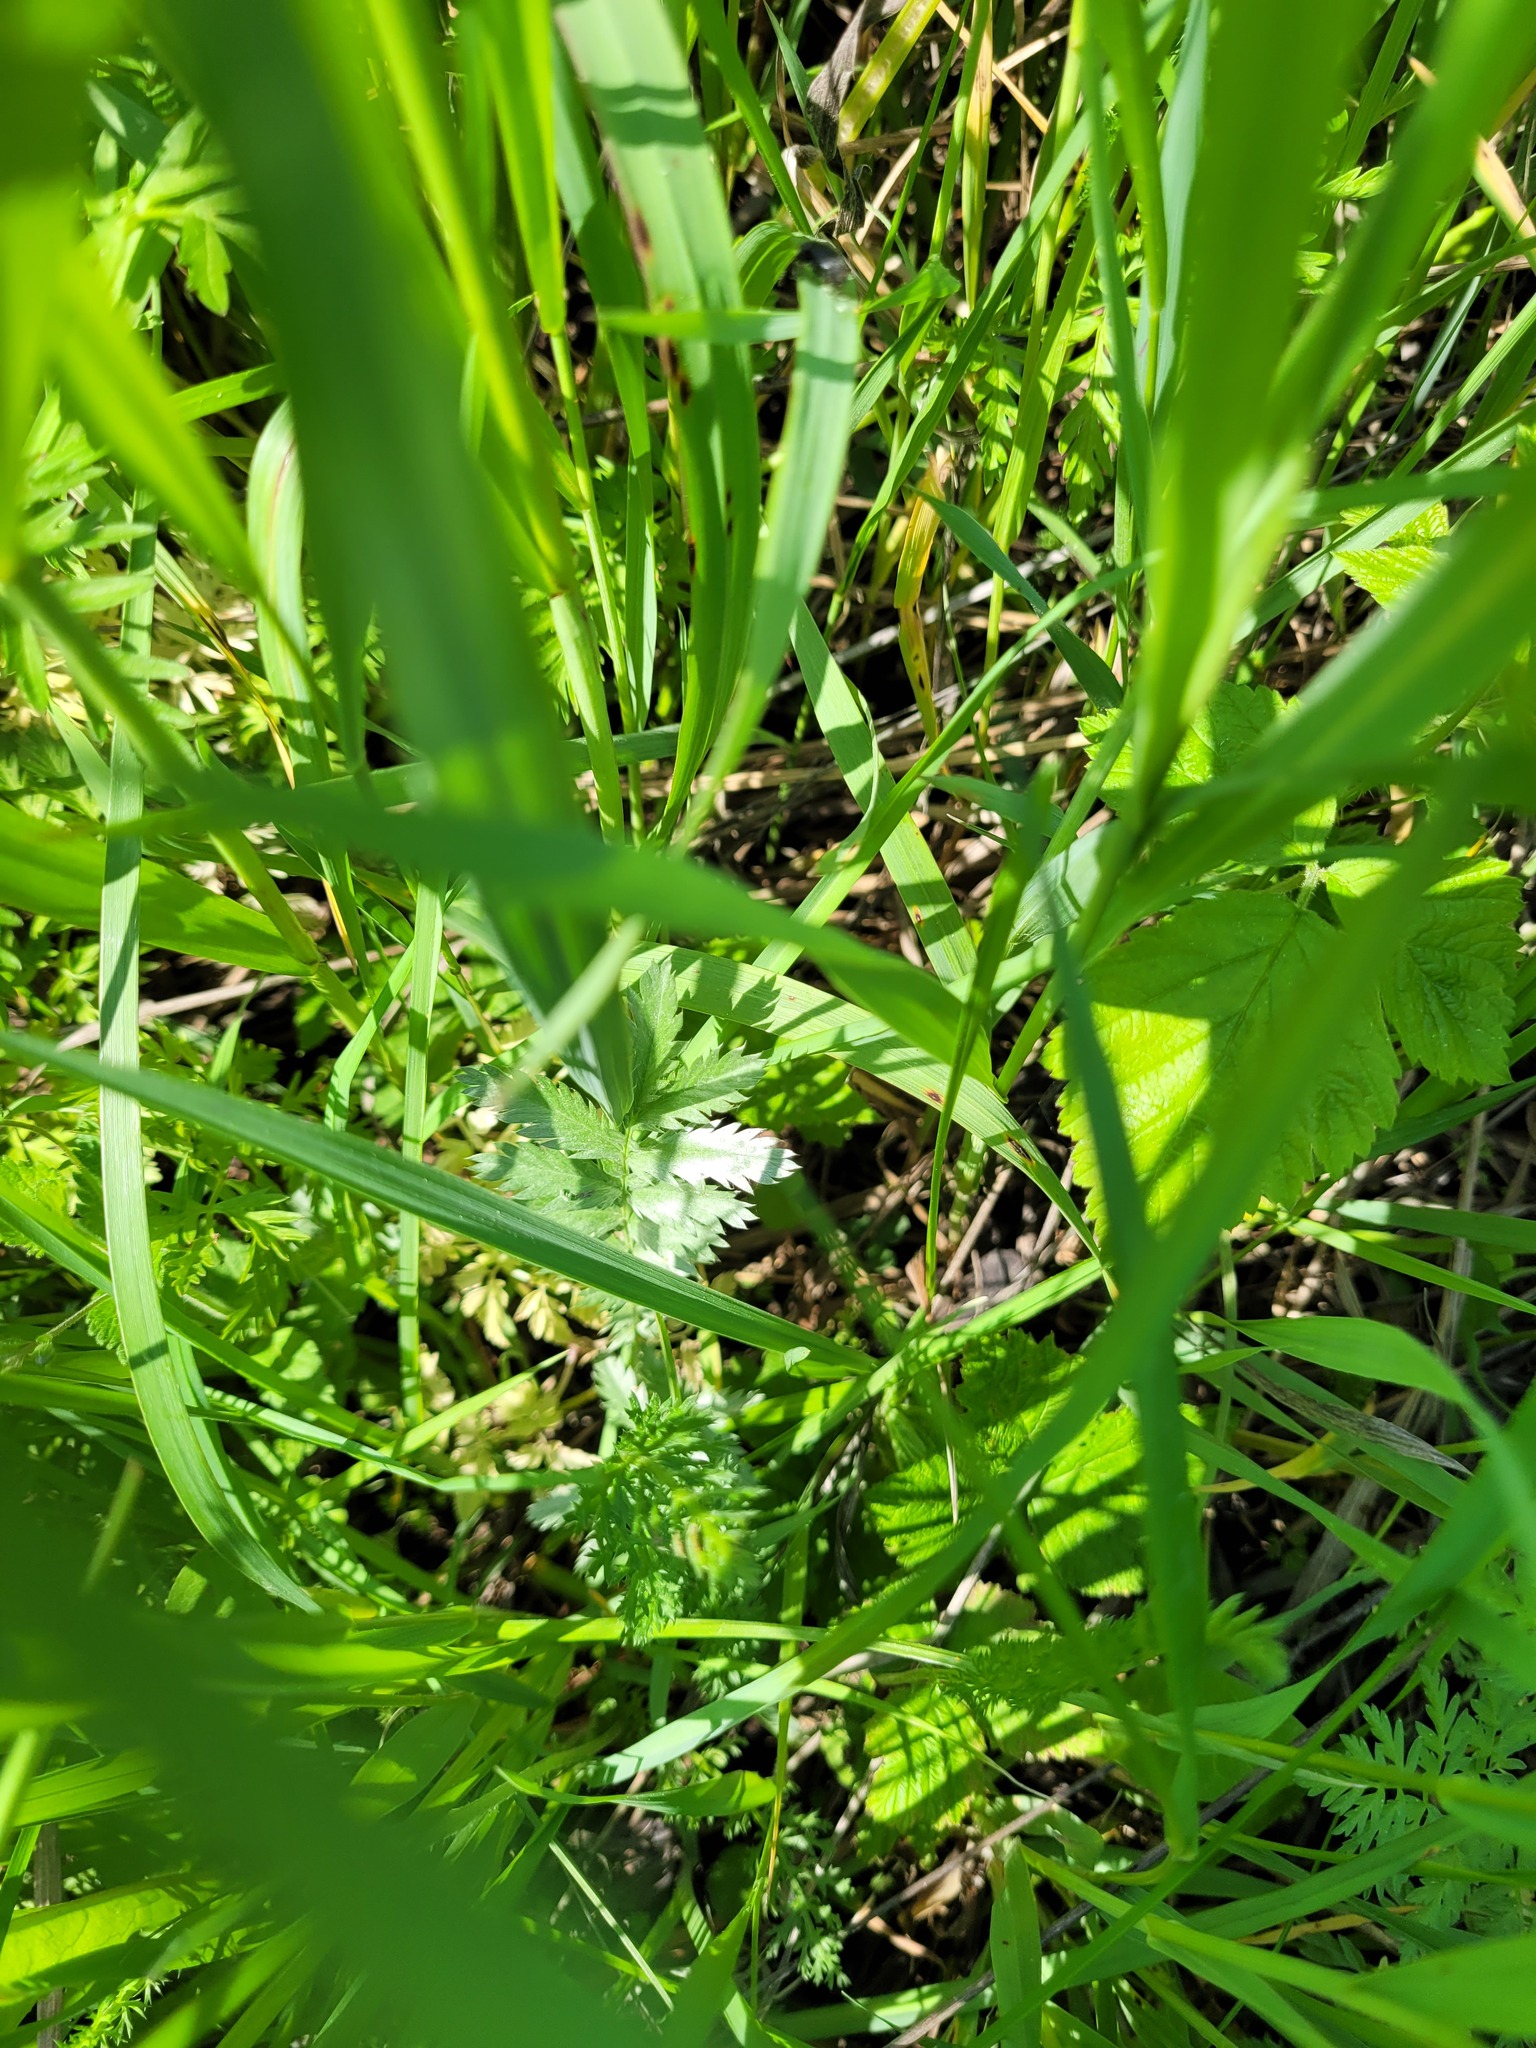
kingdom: Plantae
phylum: Tracheophyta
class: Magnoliopsida
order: Rosales
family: Rosaceae
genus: Argentina
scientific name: Argentina anserina
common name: Common silverweed
